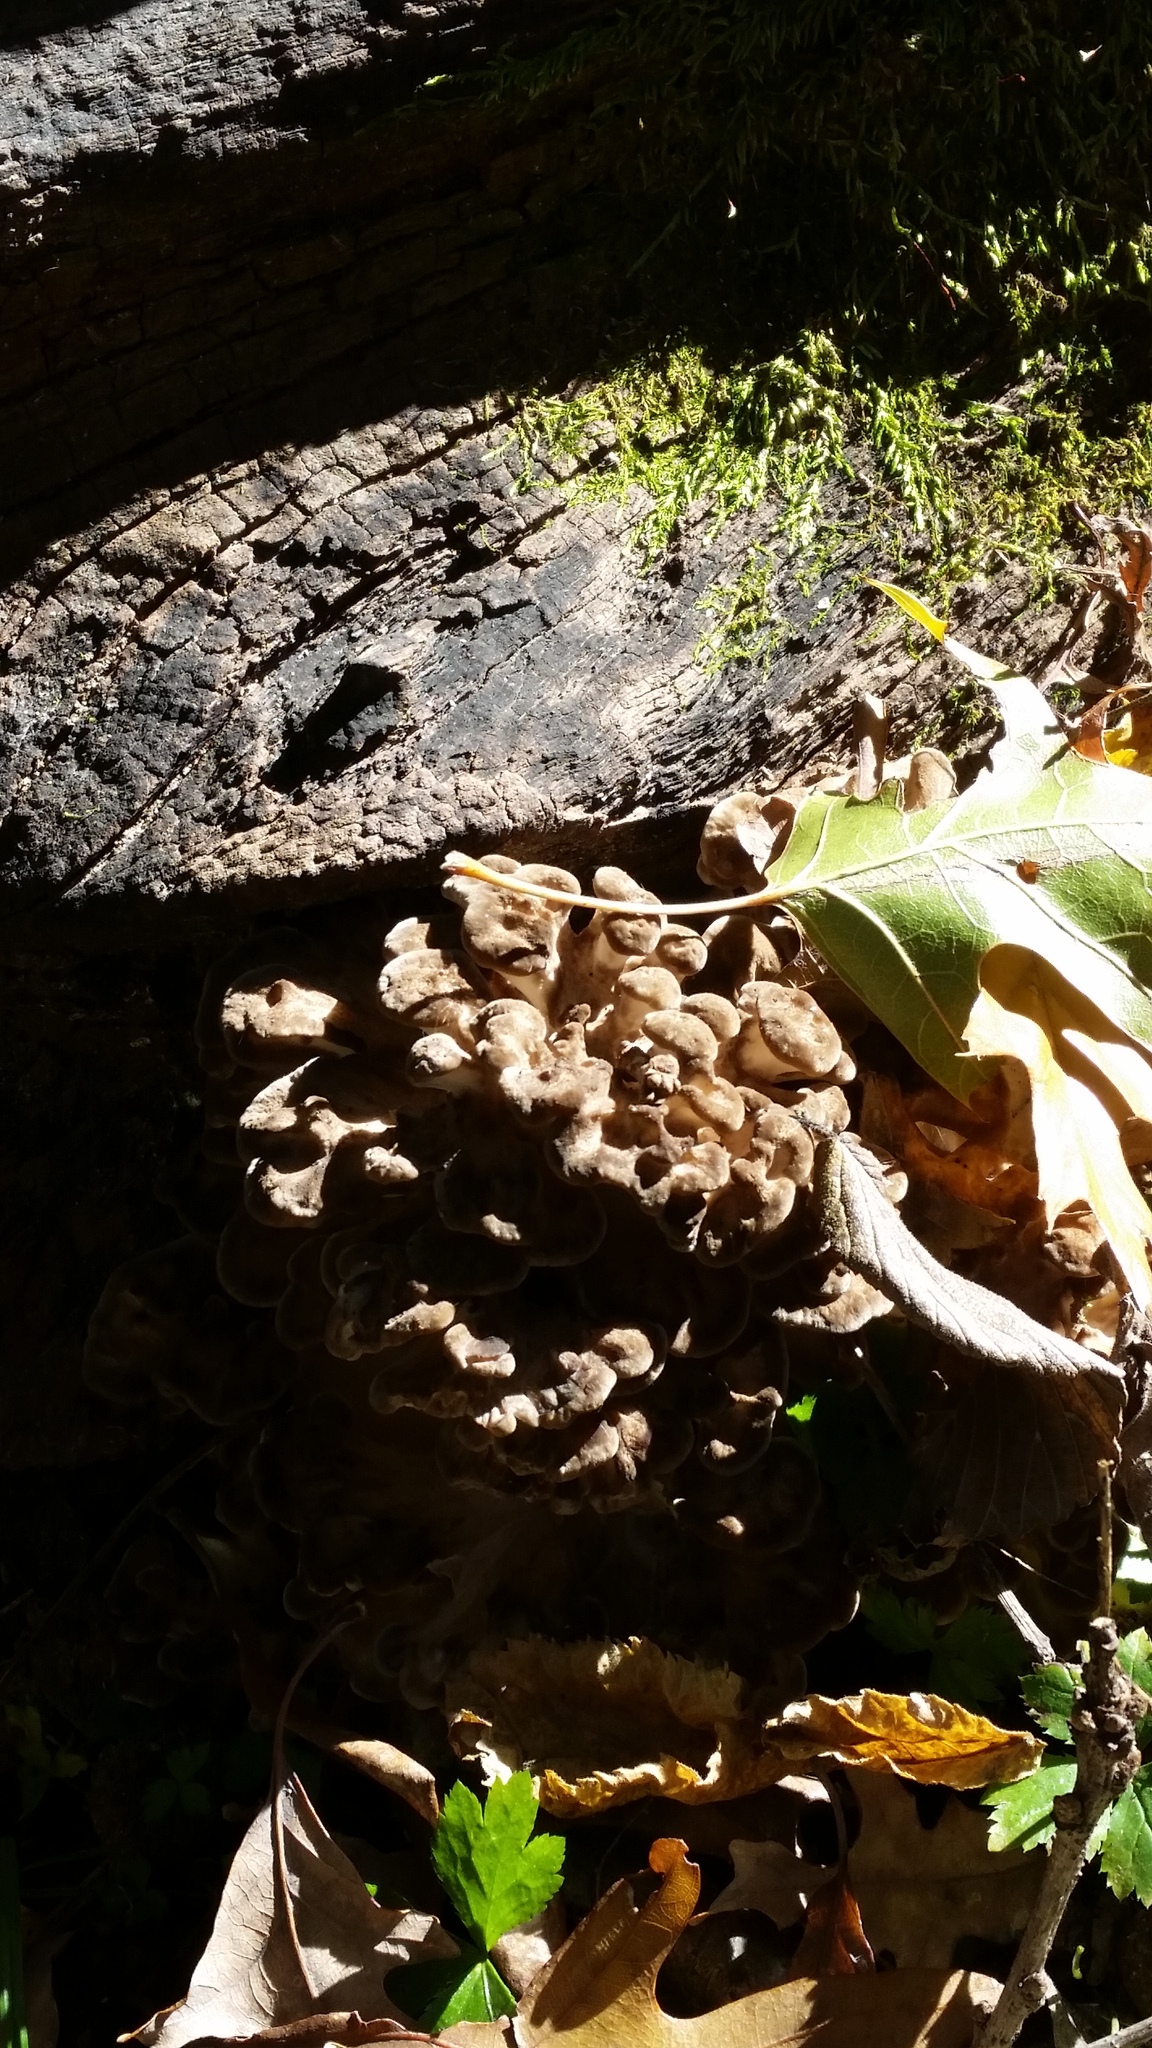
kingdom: Fungi
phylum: Basidiomycota
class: Agaricomycetes
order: Polyporales
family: Grifolaceae
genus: Grifola
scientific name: Grifola frondosa
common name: Hen of the woods
